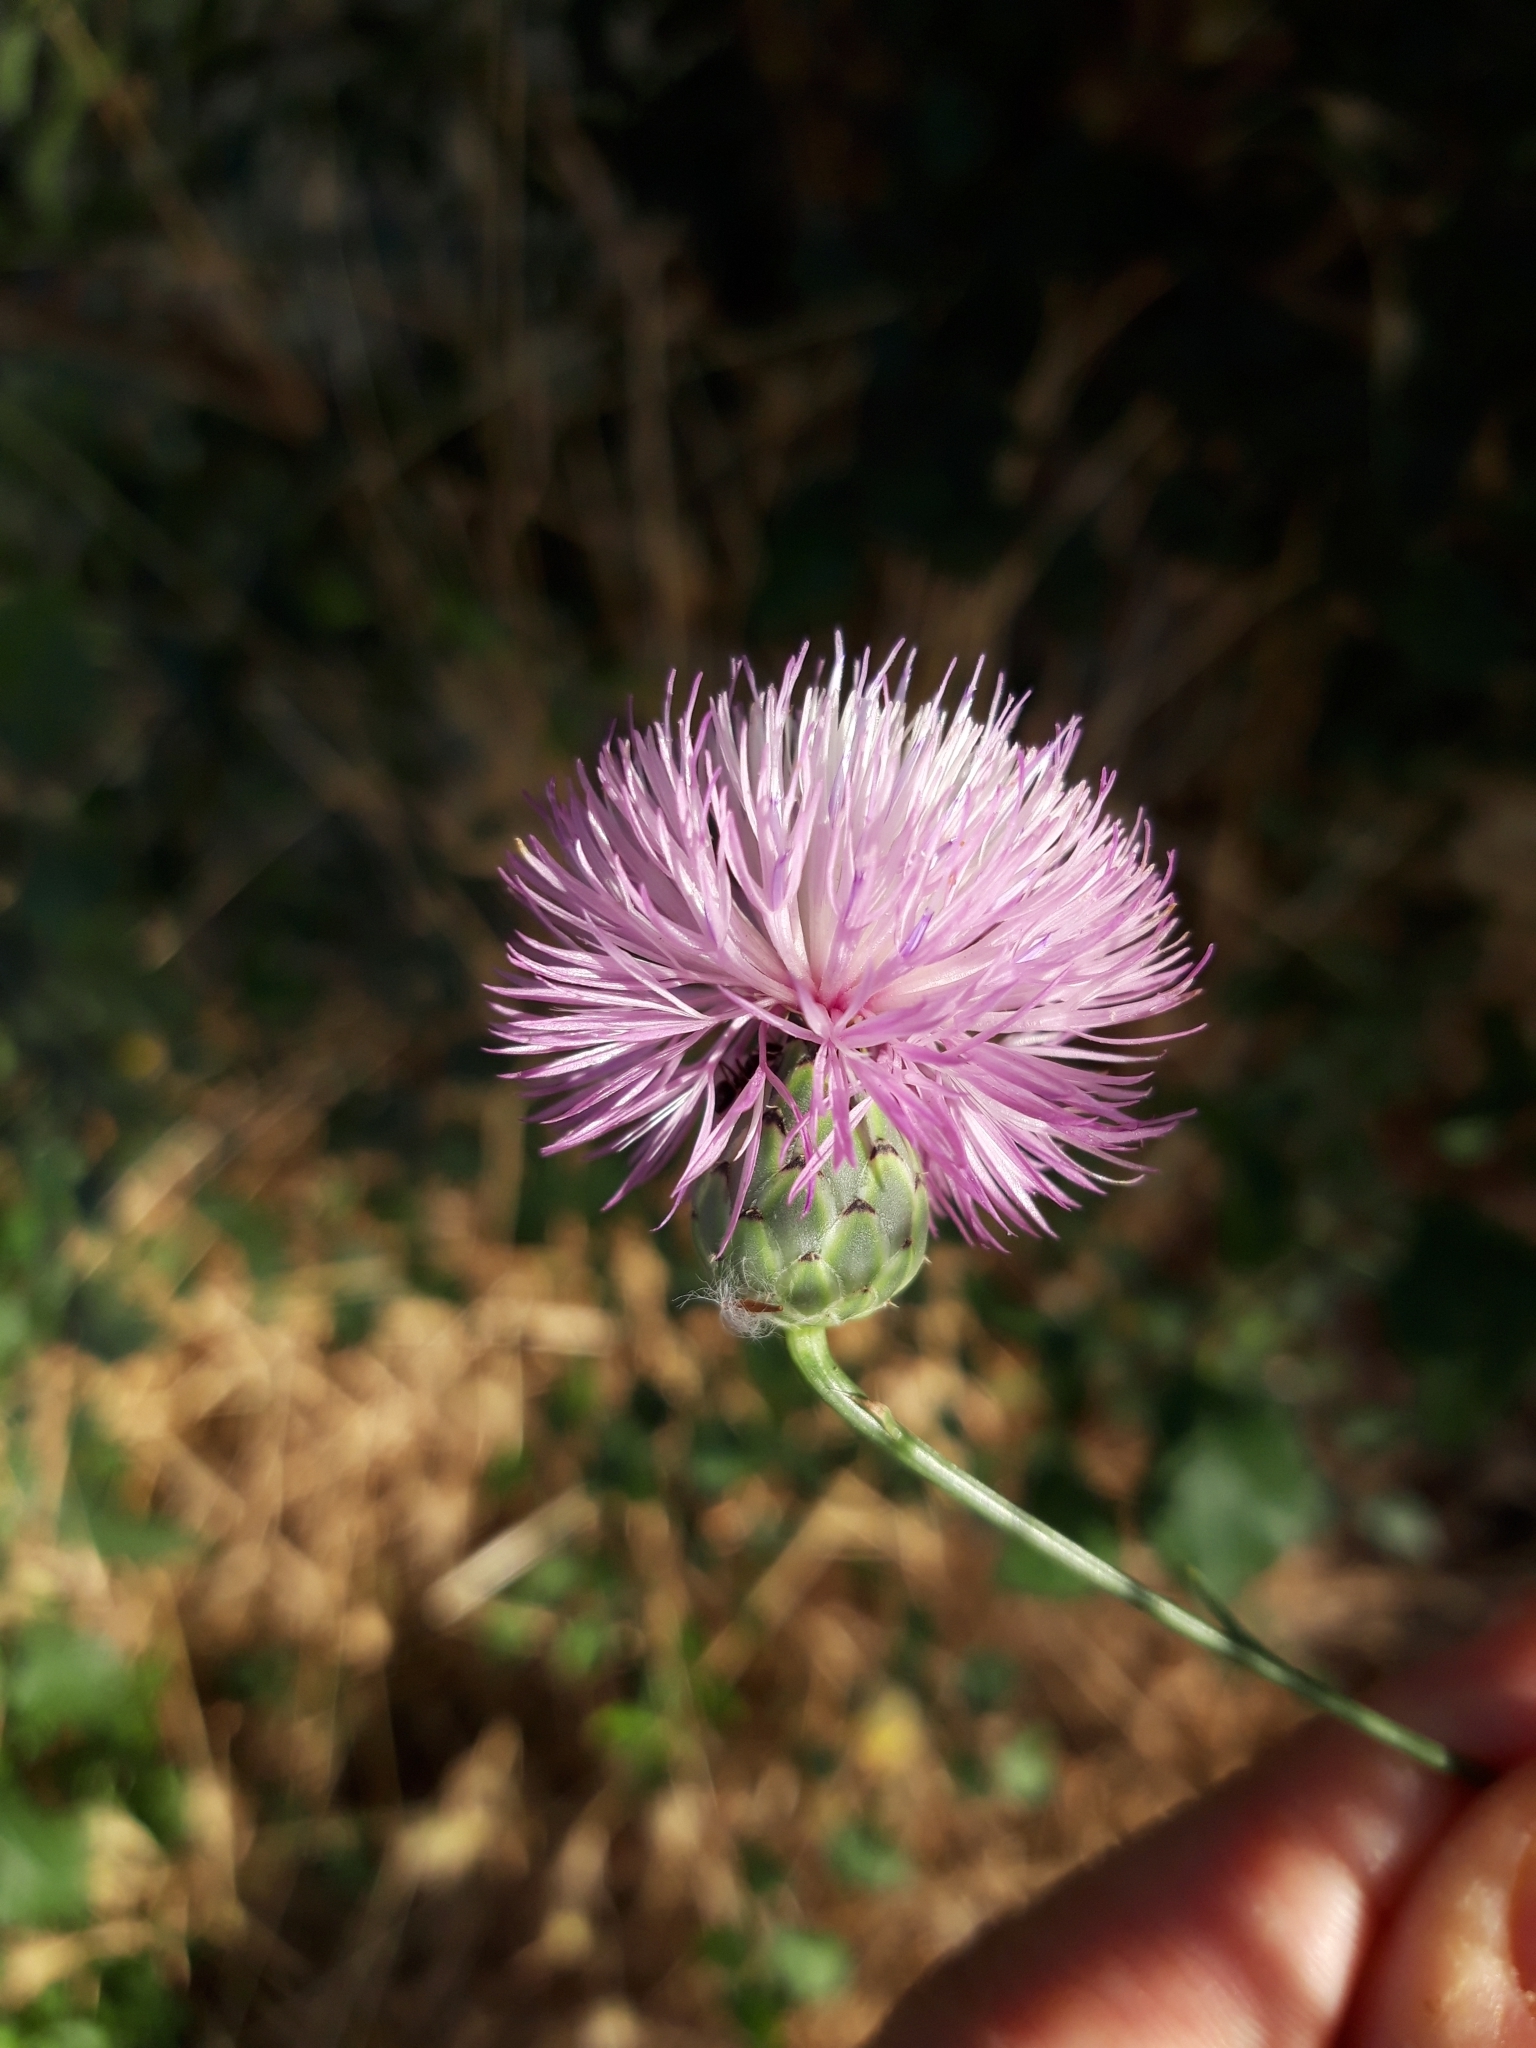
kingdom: Plantae
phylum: Tracheophyta
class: Magnoliopsida
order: Asterales
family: Asteraceae
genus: Mantisalca
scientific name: Mantisalca salmantica
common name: Dagger flower
